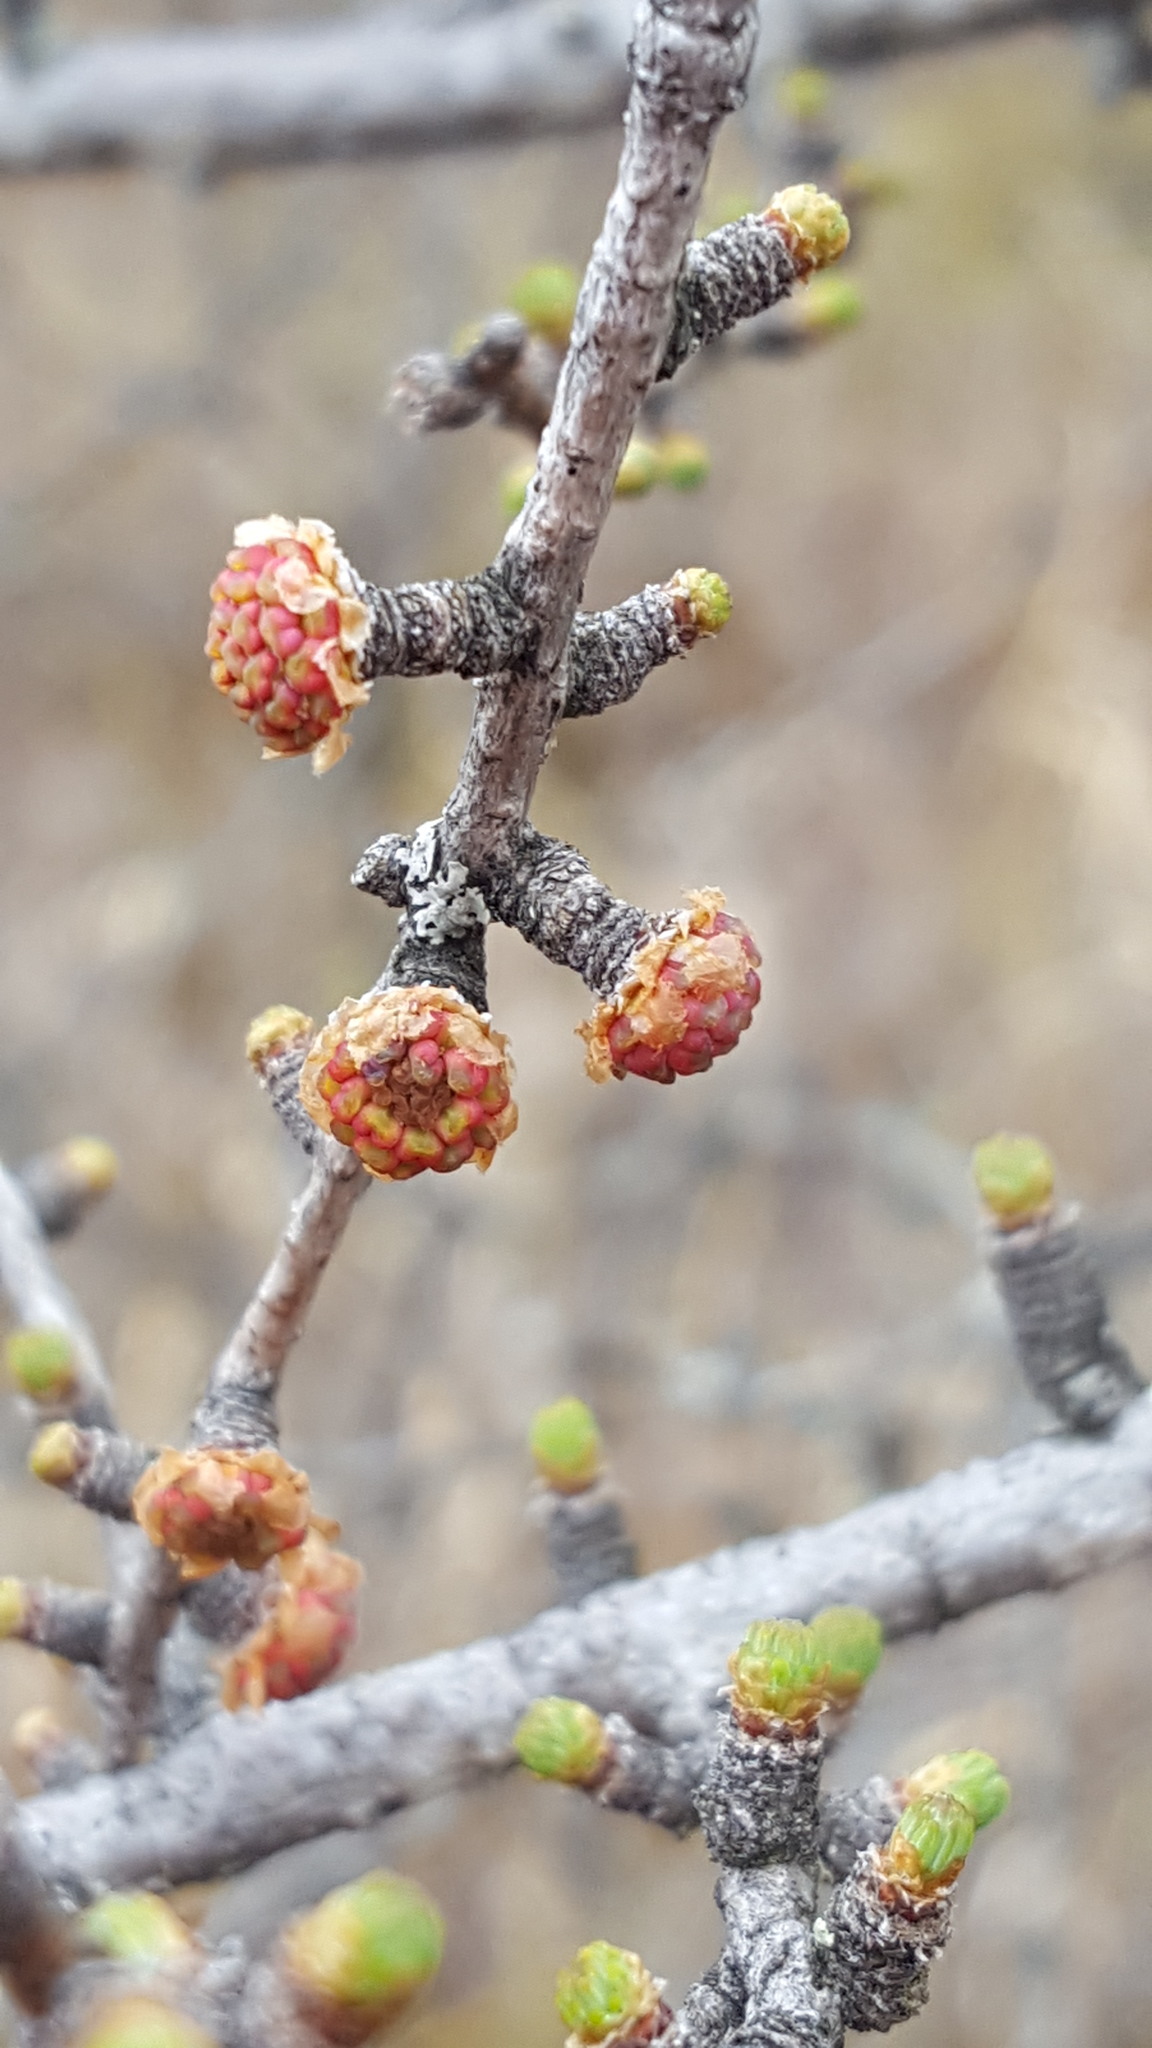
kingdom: Plantae
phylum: Tracheophyta
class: Pinopsida
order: Pinales
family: Pinaceae
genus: Larix
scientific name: Larix laricina
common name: American larch
